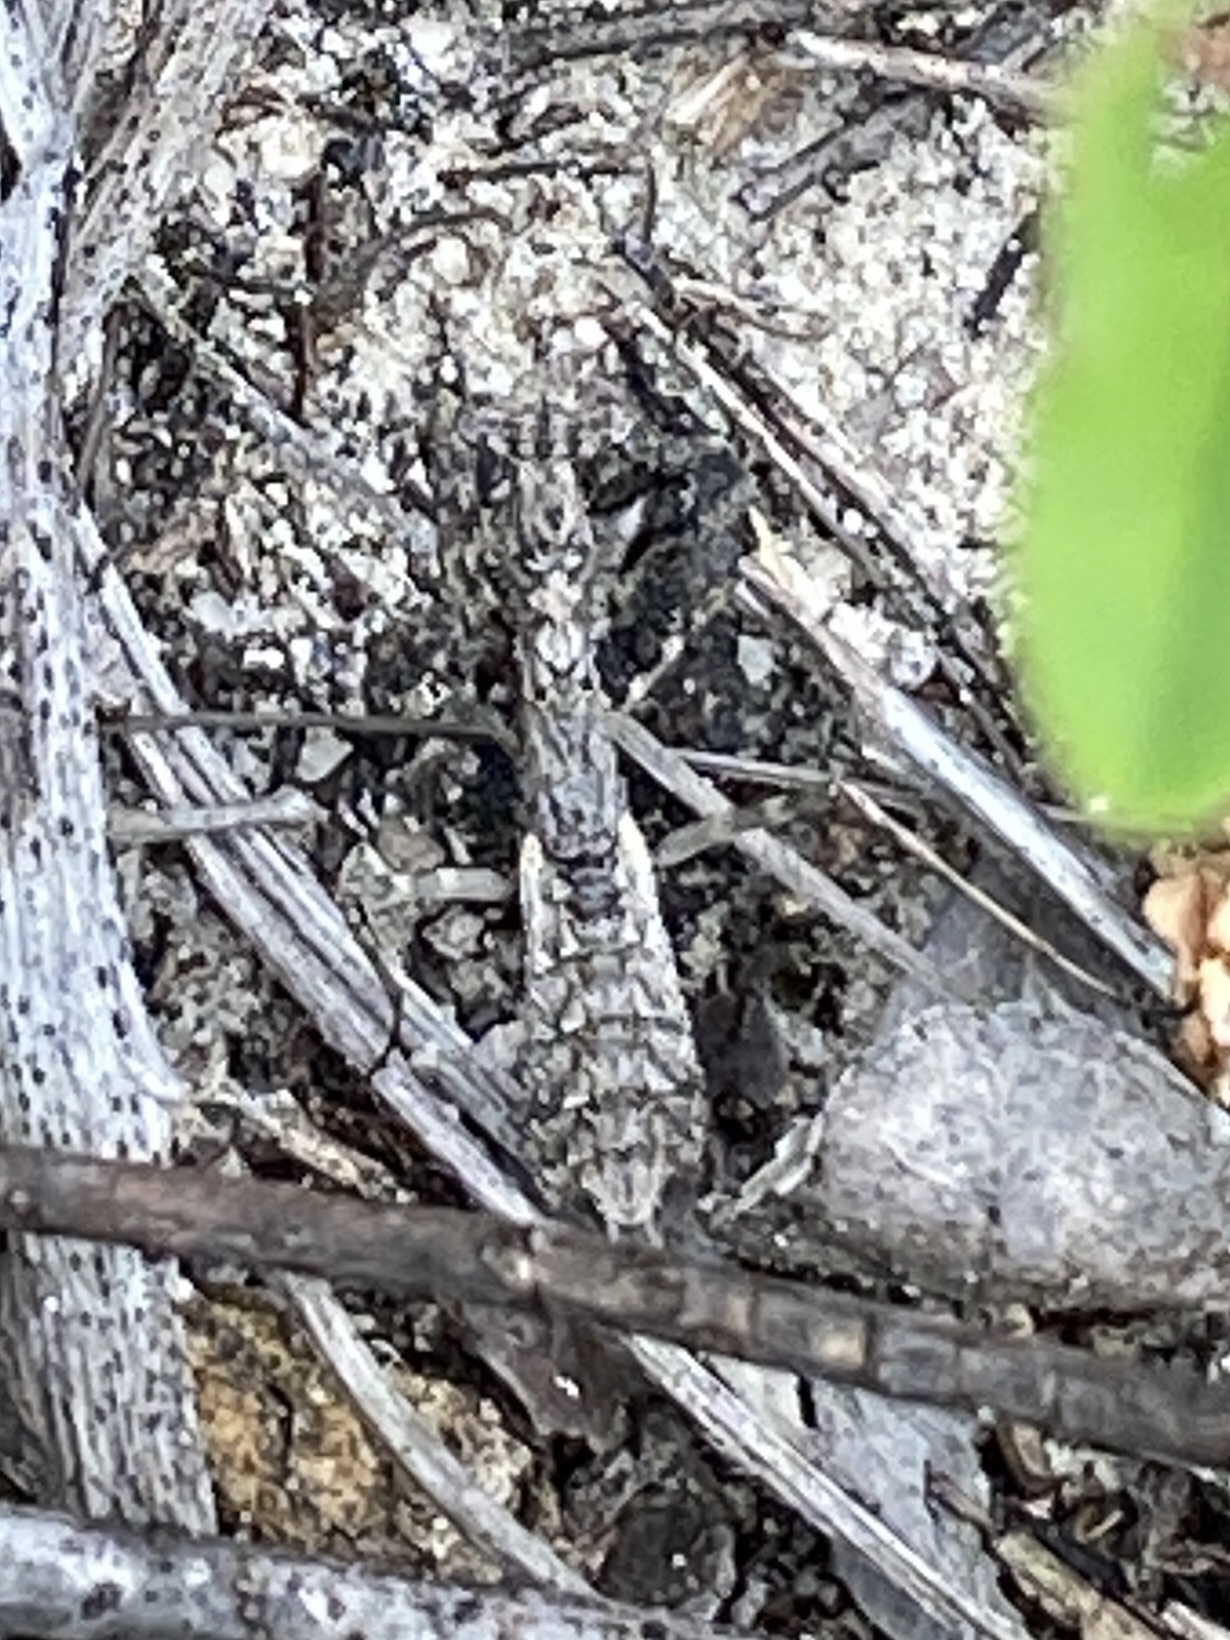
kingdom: Animalia
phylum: Arthropoda
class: Insecta
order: Mantodea
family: Chroicopteridae
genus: Ligariella
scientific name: Ligariella gracilis
